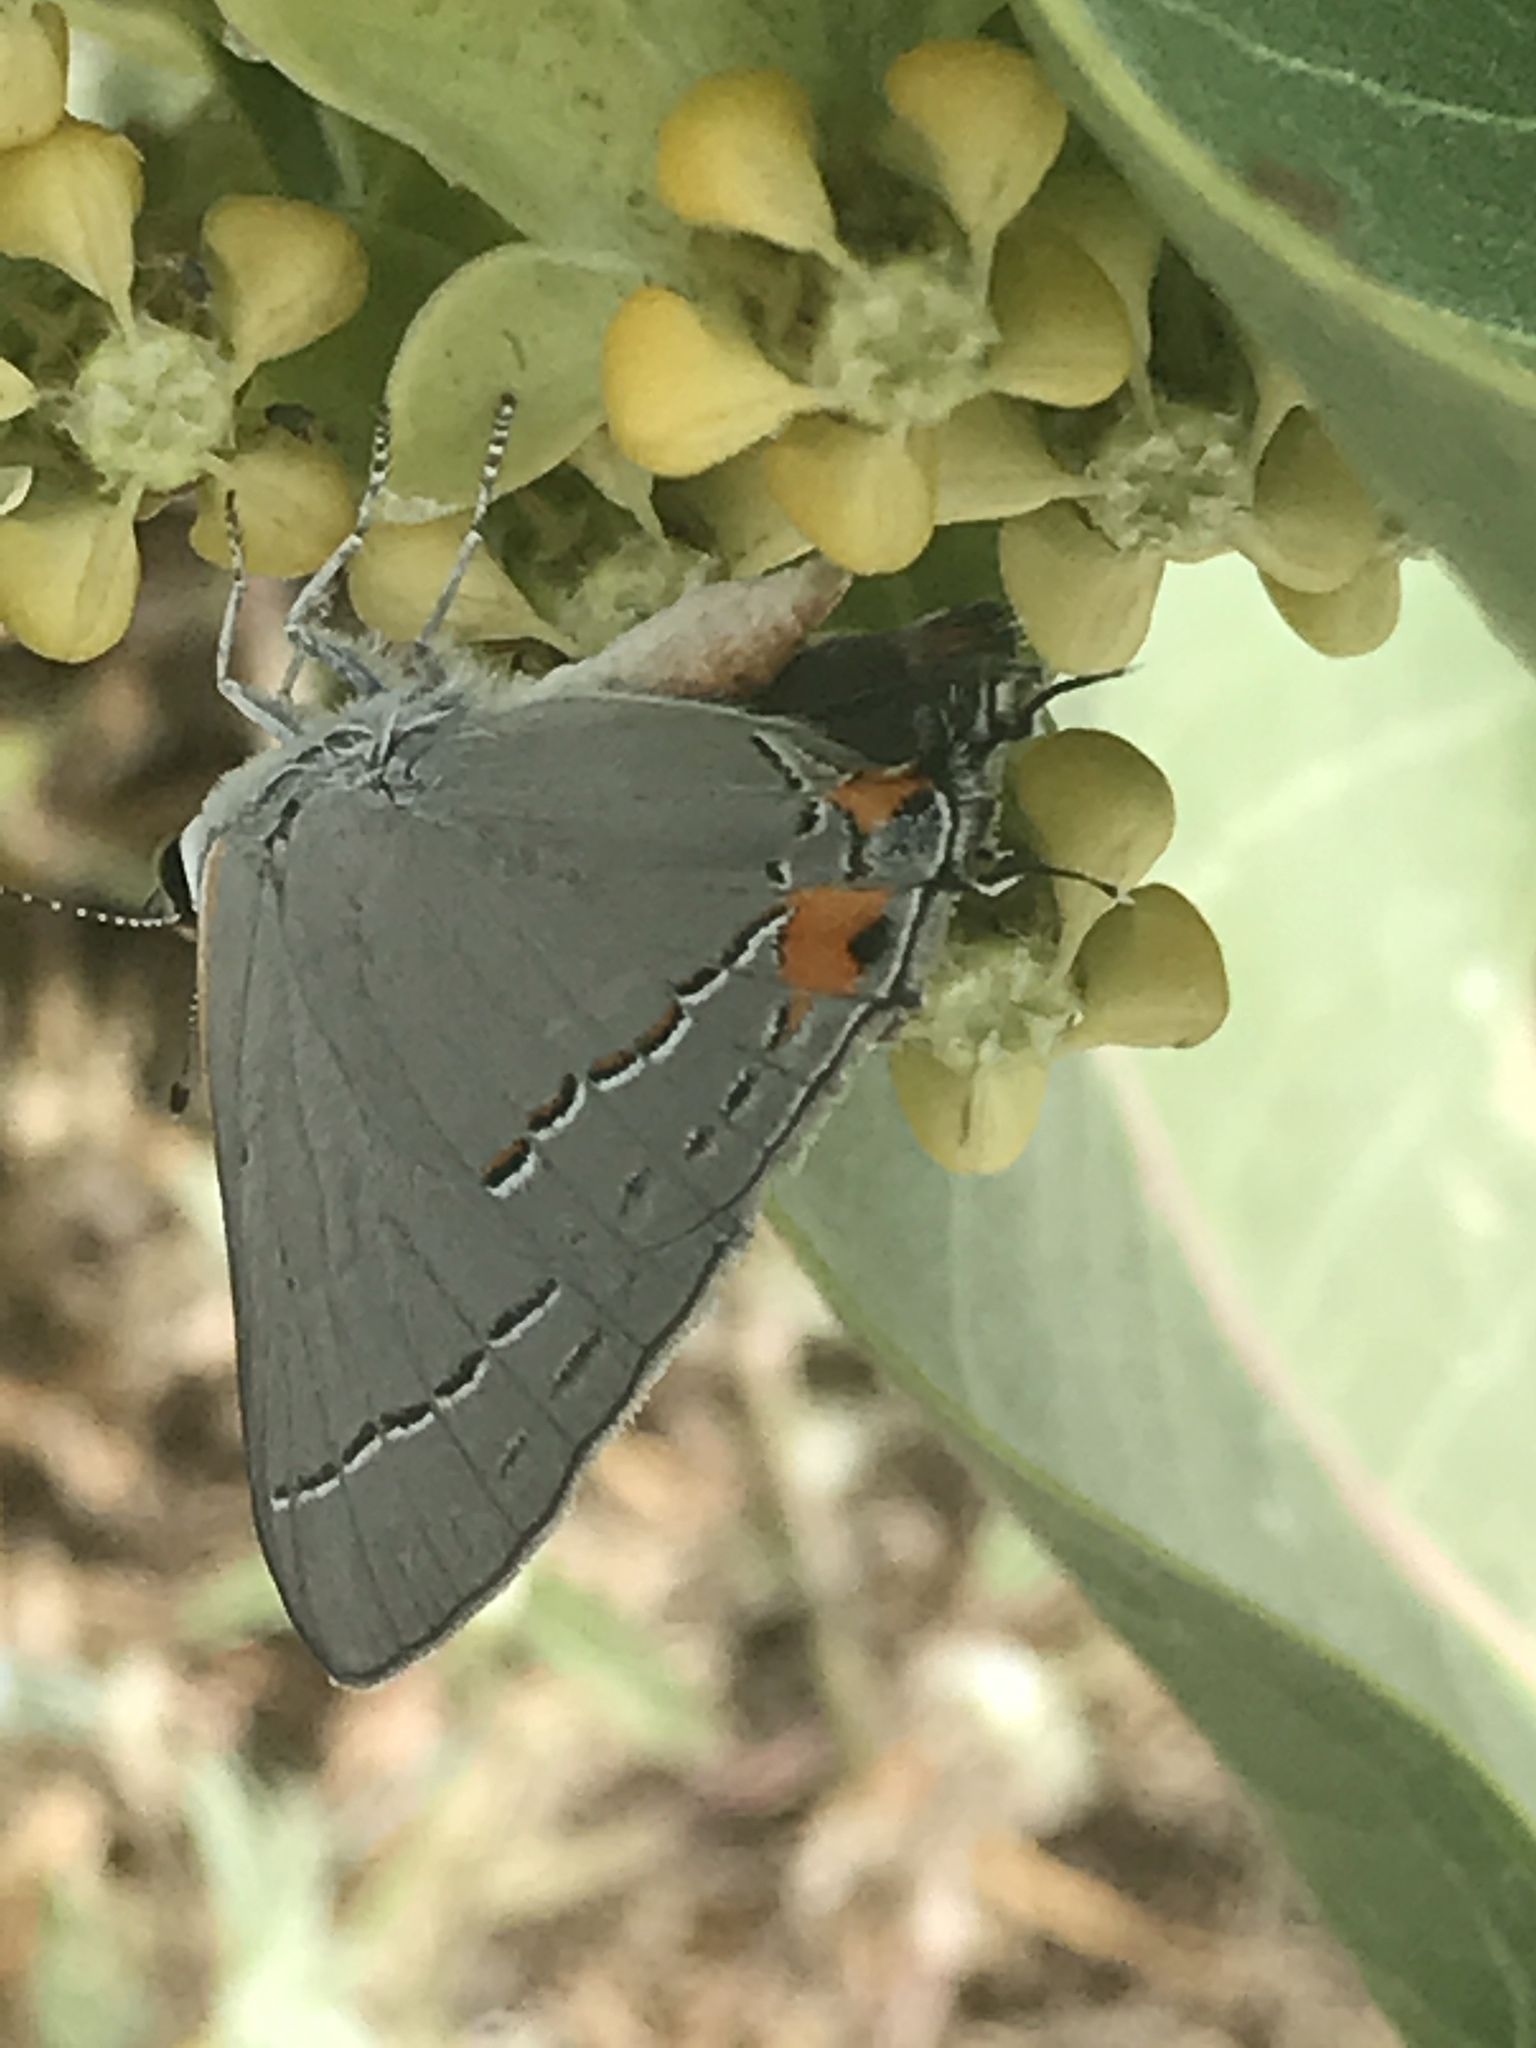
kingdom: Animalia
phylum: Arthropoda
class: Insecta
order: Lepidoptera
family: Lycaenidae
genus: Strymon
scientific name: Strymon melinus
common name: Gray hairstreak
